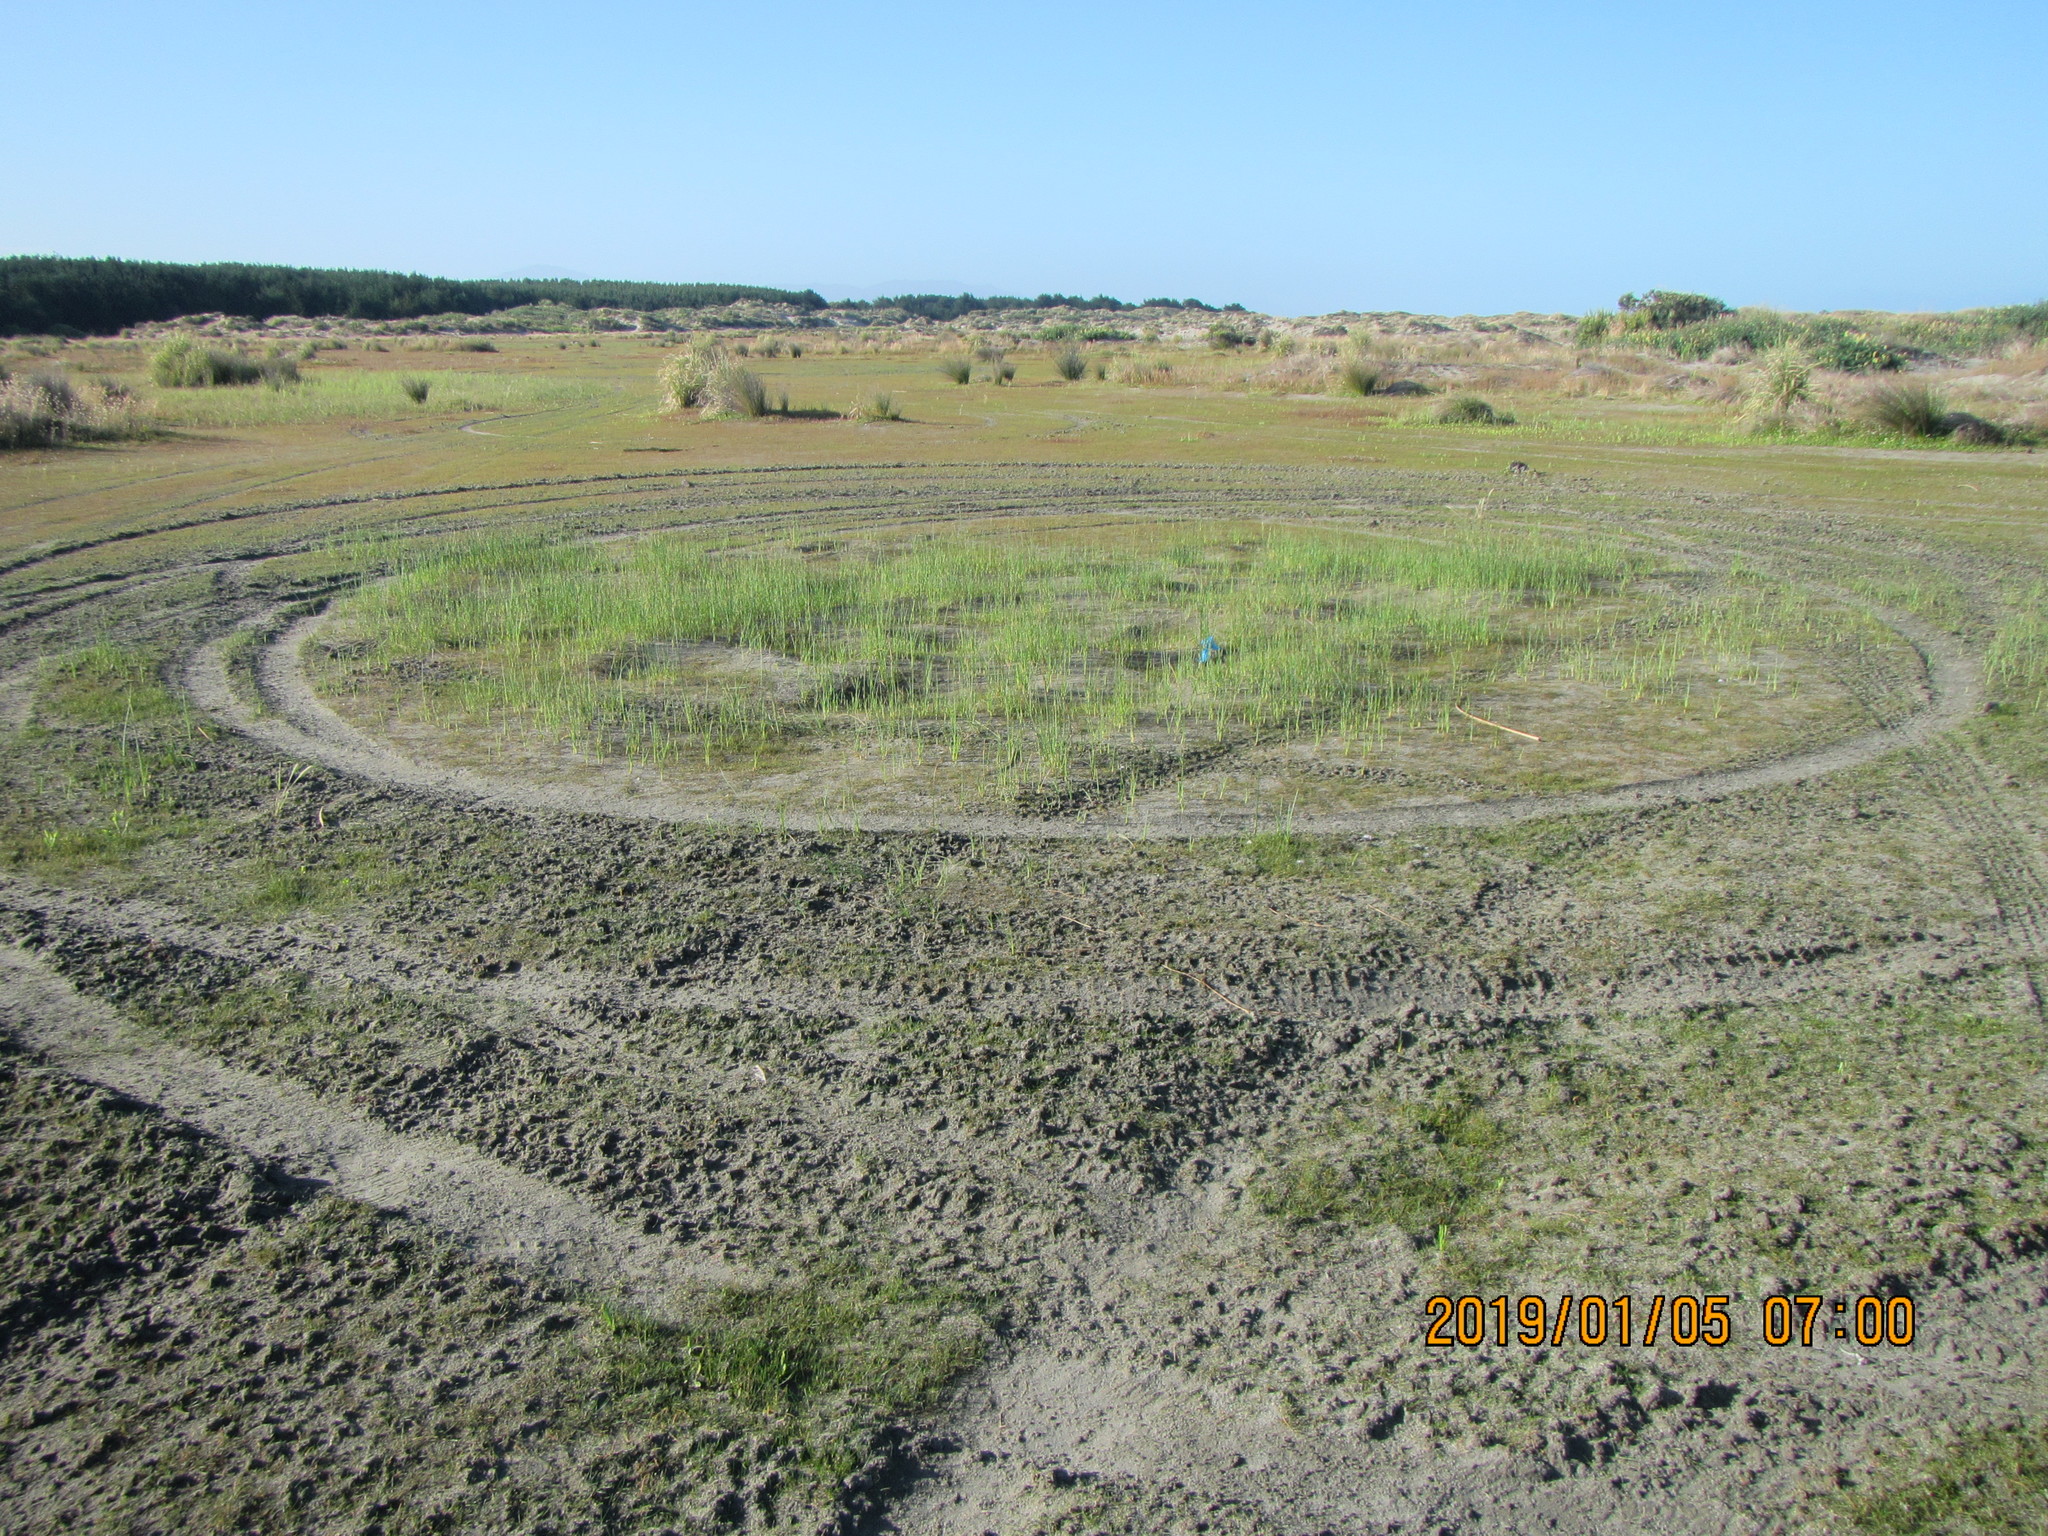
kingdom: Plantae
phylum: Tracheophyta
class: Liliopsida
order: Poales
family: Cyperaceae
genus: Schoenoplectus
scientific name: Schoenoplectus pungens
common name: Sharp club-rush
